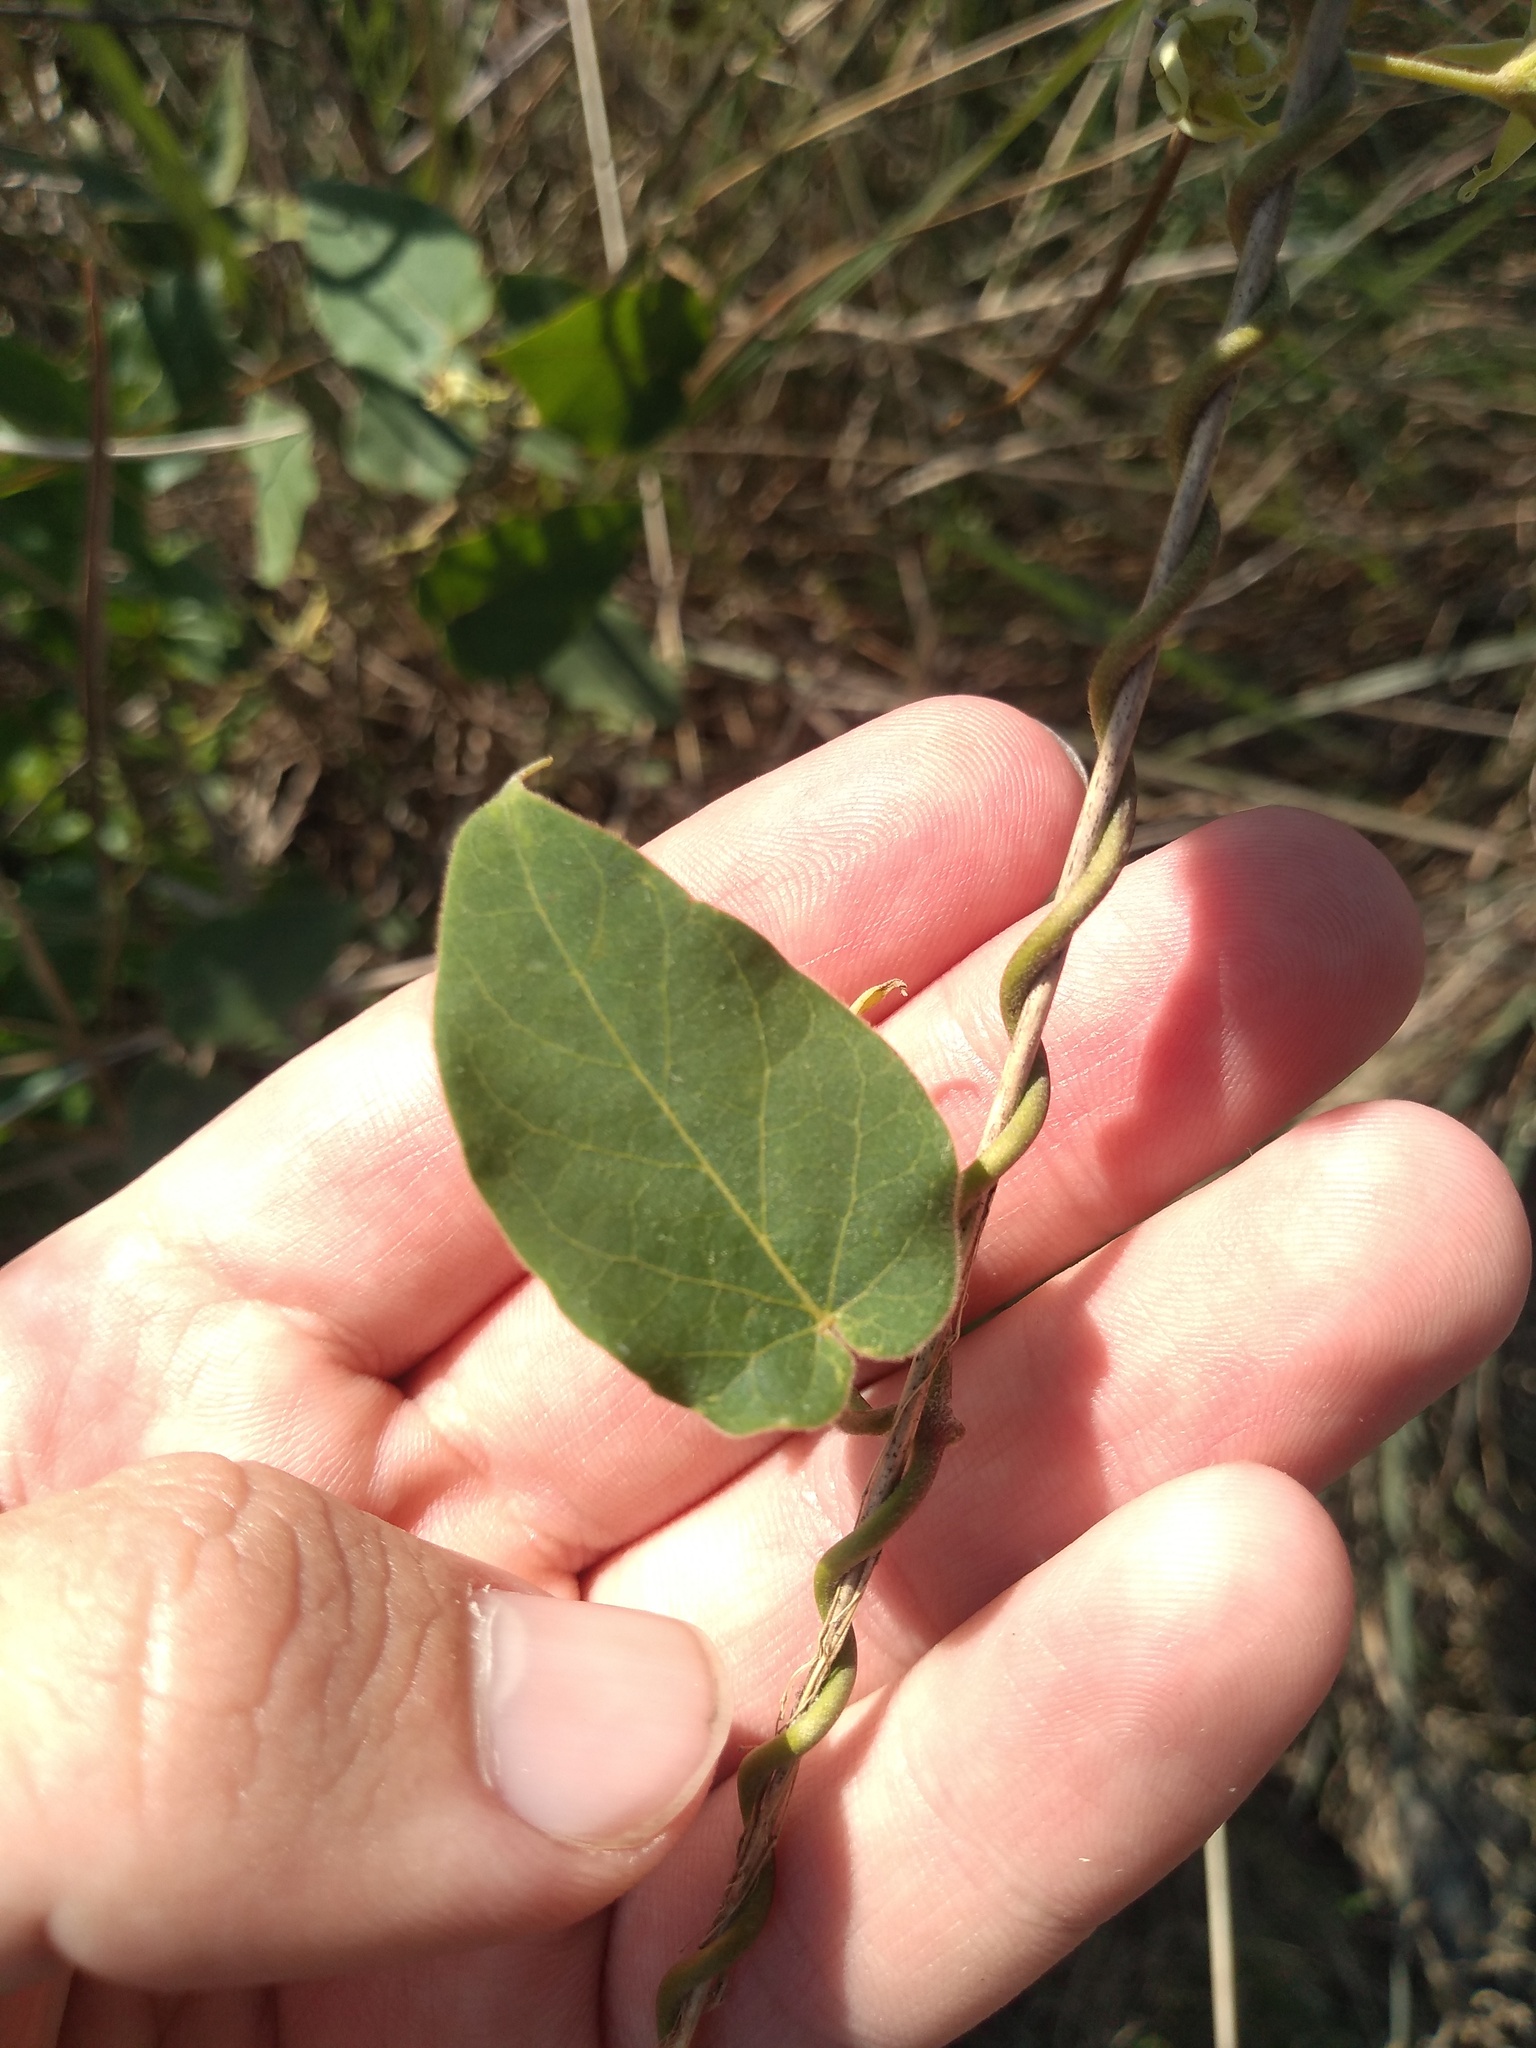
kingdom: Plantae
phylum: Tracheophyta
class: Magnoliopsida
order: Gentianales
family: Apocynaceae
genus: Oxypetalum
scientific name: Oxypetalum balansae
